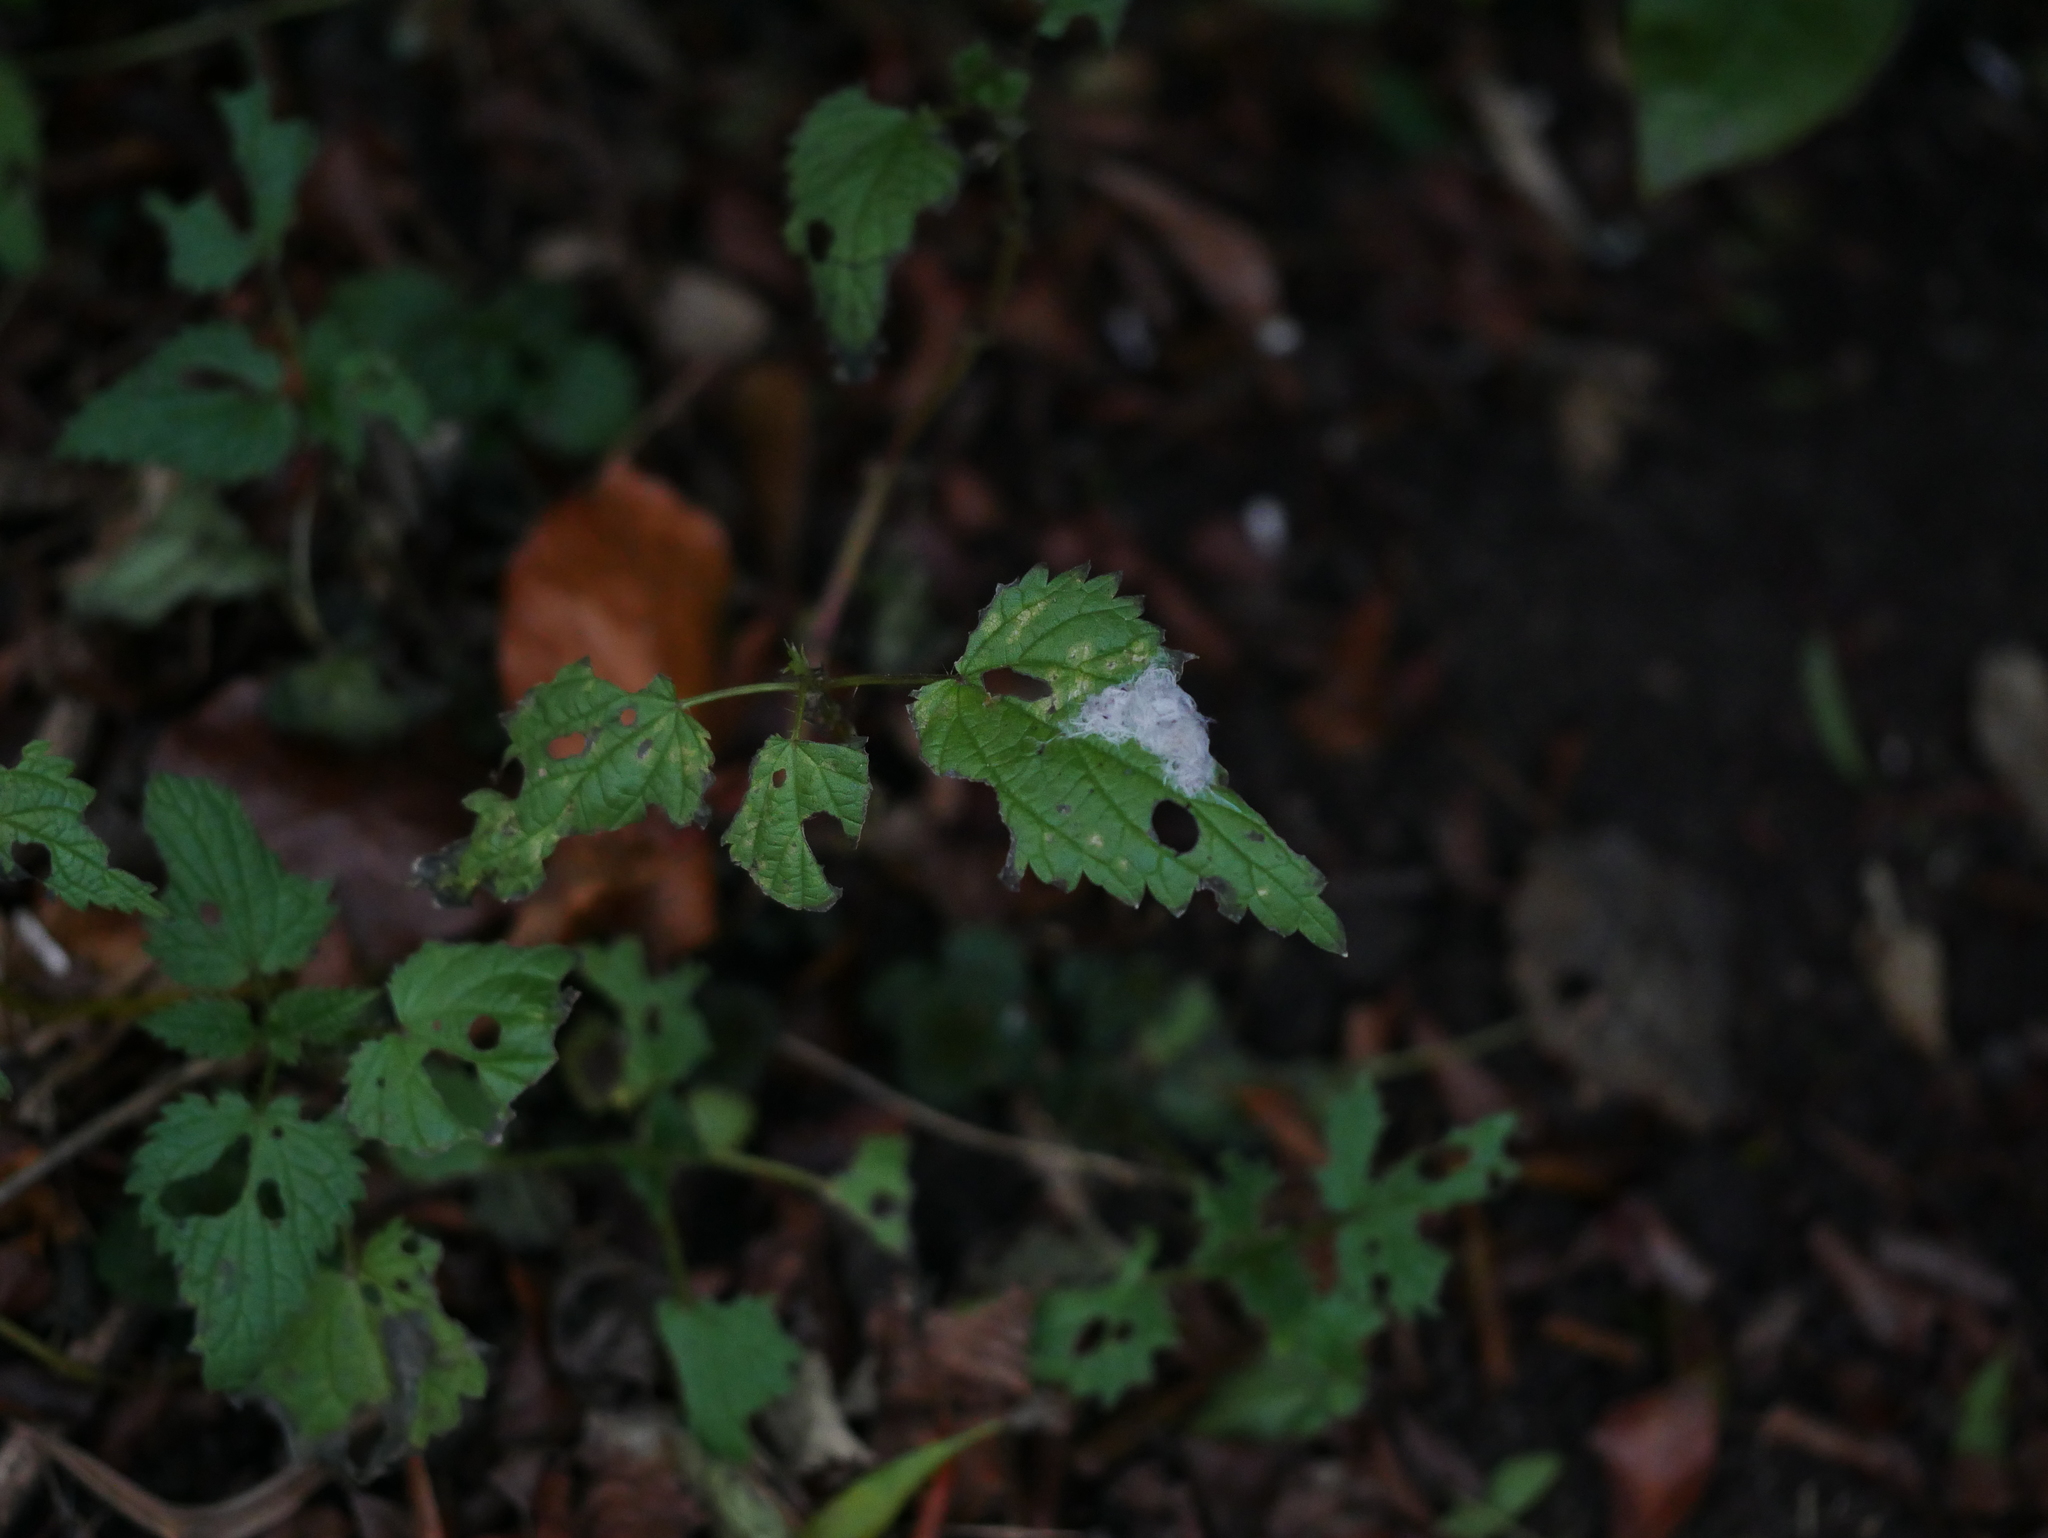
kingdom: Plantae
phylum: Tracheophyta
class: Magnoliopsida
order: Rosales
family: Urticaceae
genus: Urtica
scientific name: Urtica dioica
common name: Common nettle
